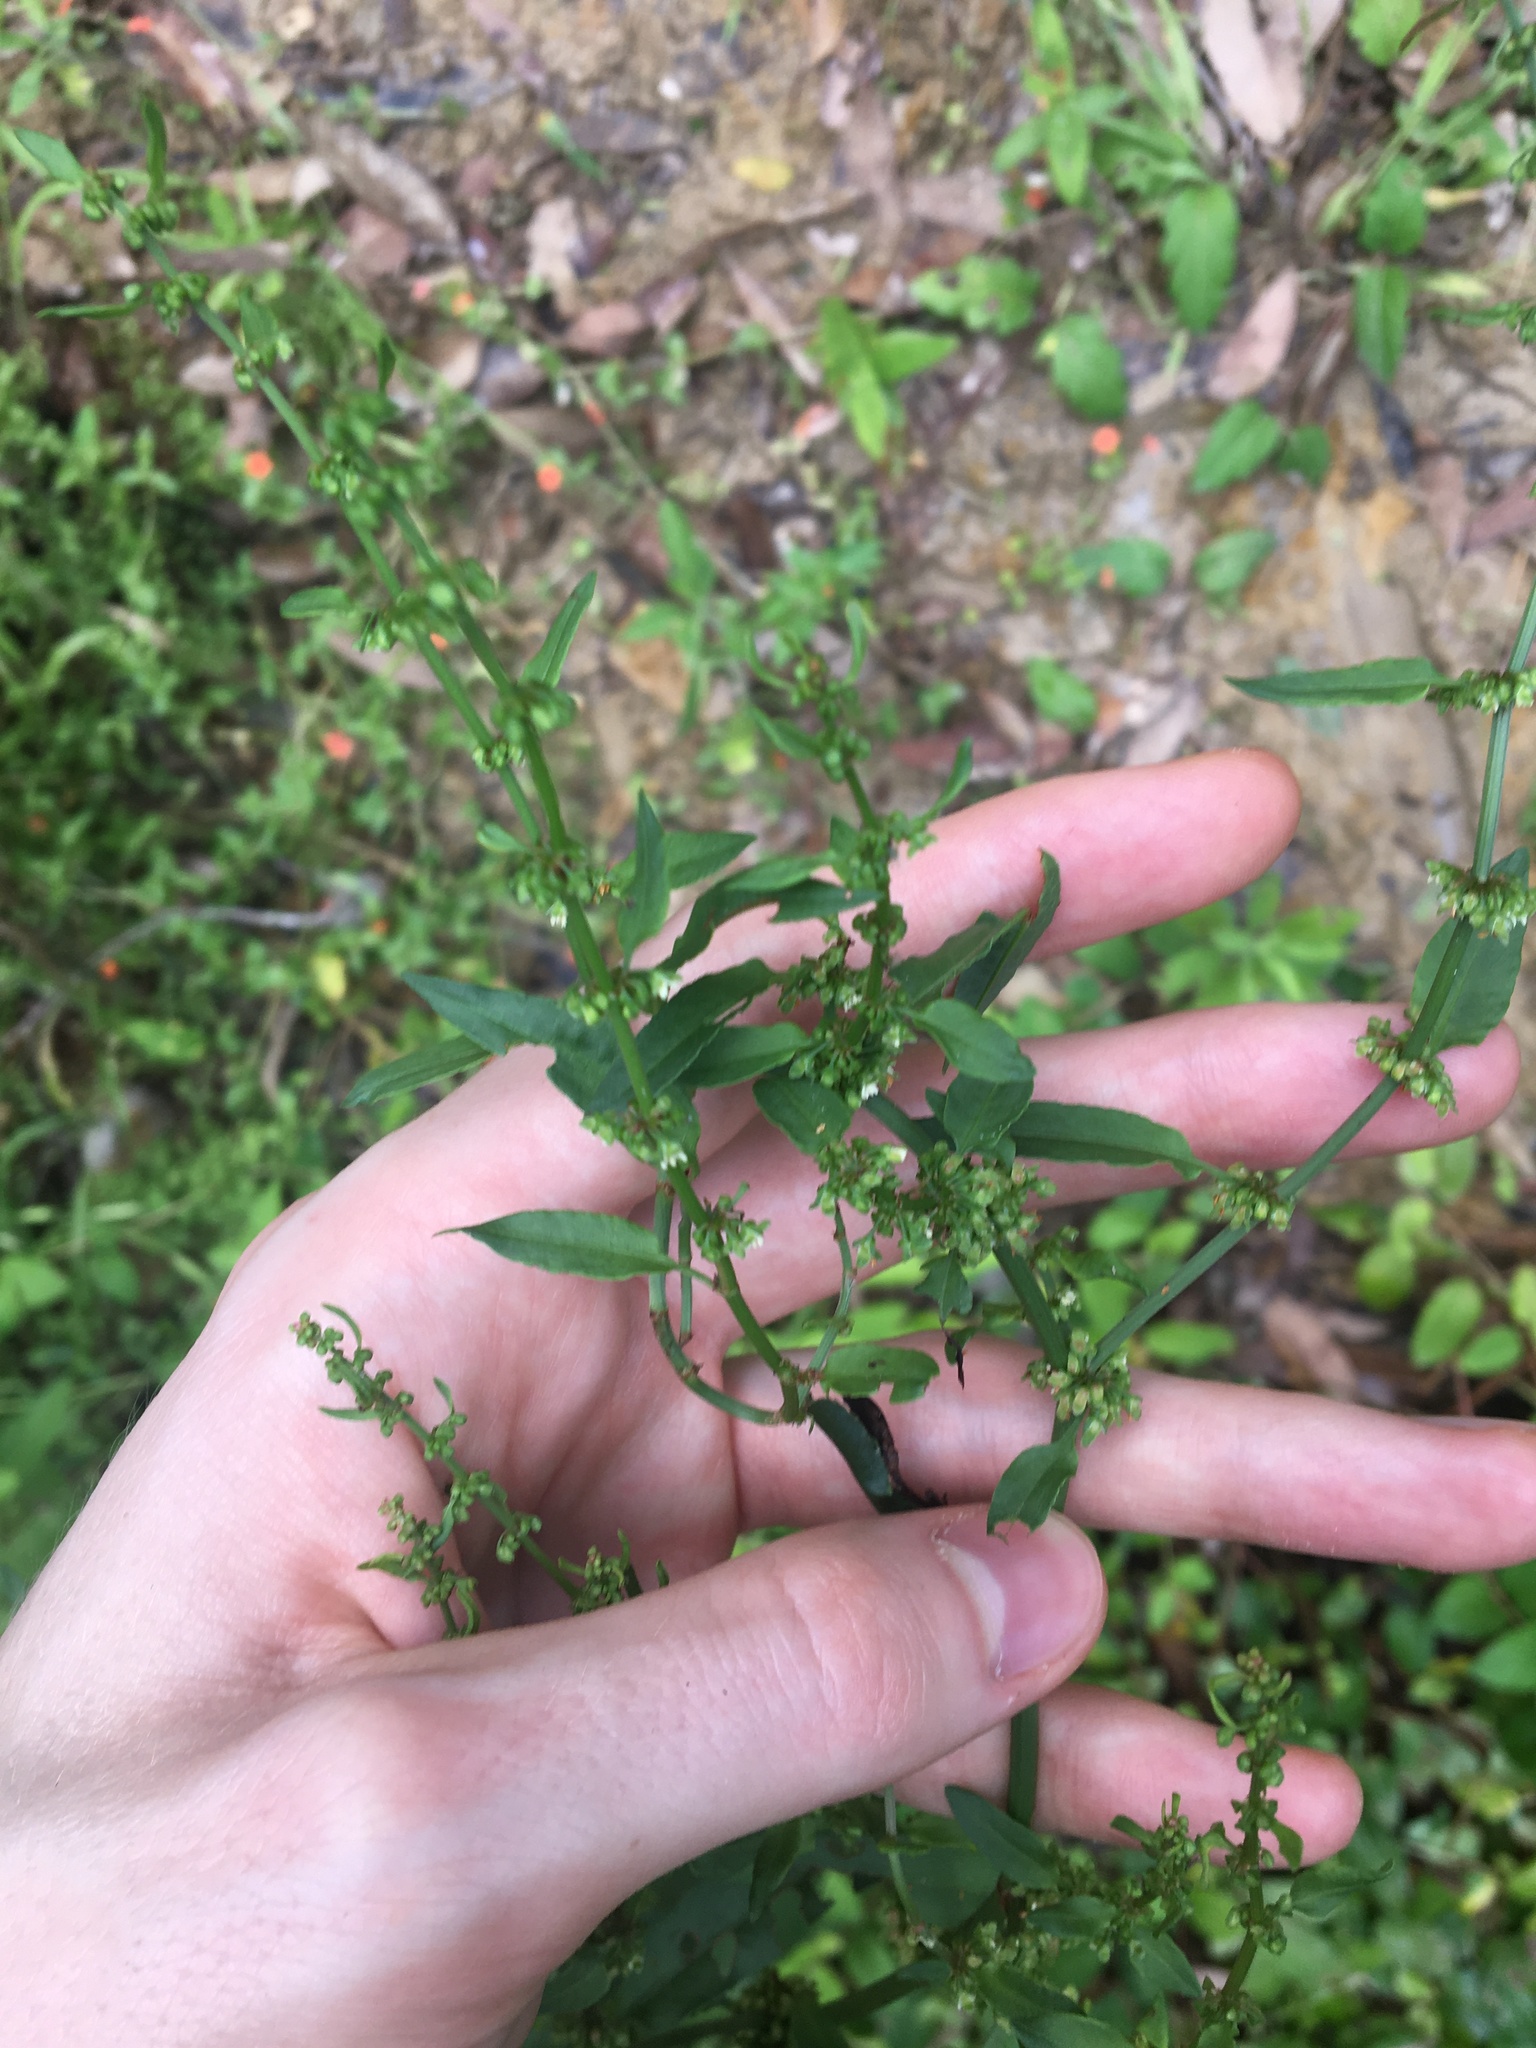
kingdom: Plantae
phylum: Tracheophyta
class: Magnoliopsida
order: Caryophyllales
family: Polygonaceae
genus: Rumex
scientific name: Rumex conglomeratus
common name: Clustered dock
